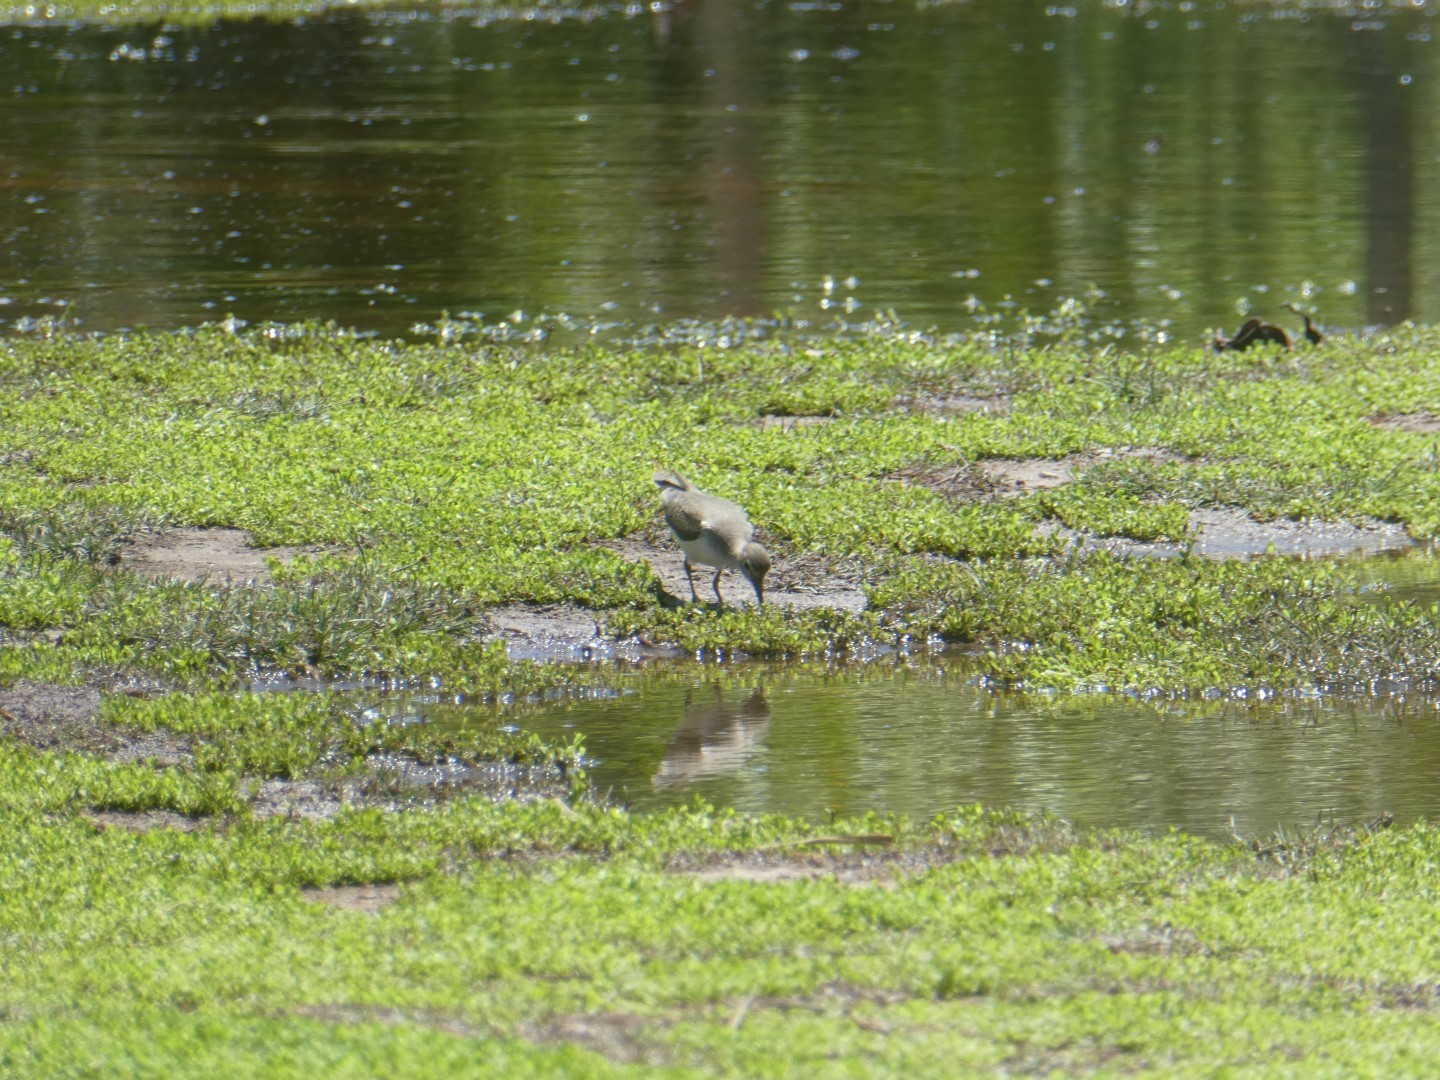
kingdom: Animalia
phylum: Chordata
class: Aves
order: Charadriiformes
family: Scolopacidae
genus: Tringa
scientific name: Tringa solitaria
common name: Solitary sandpiper
